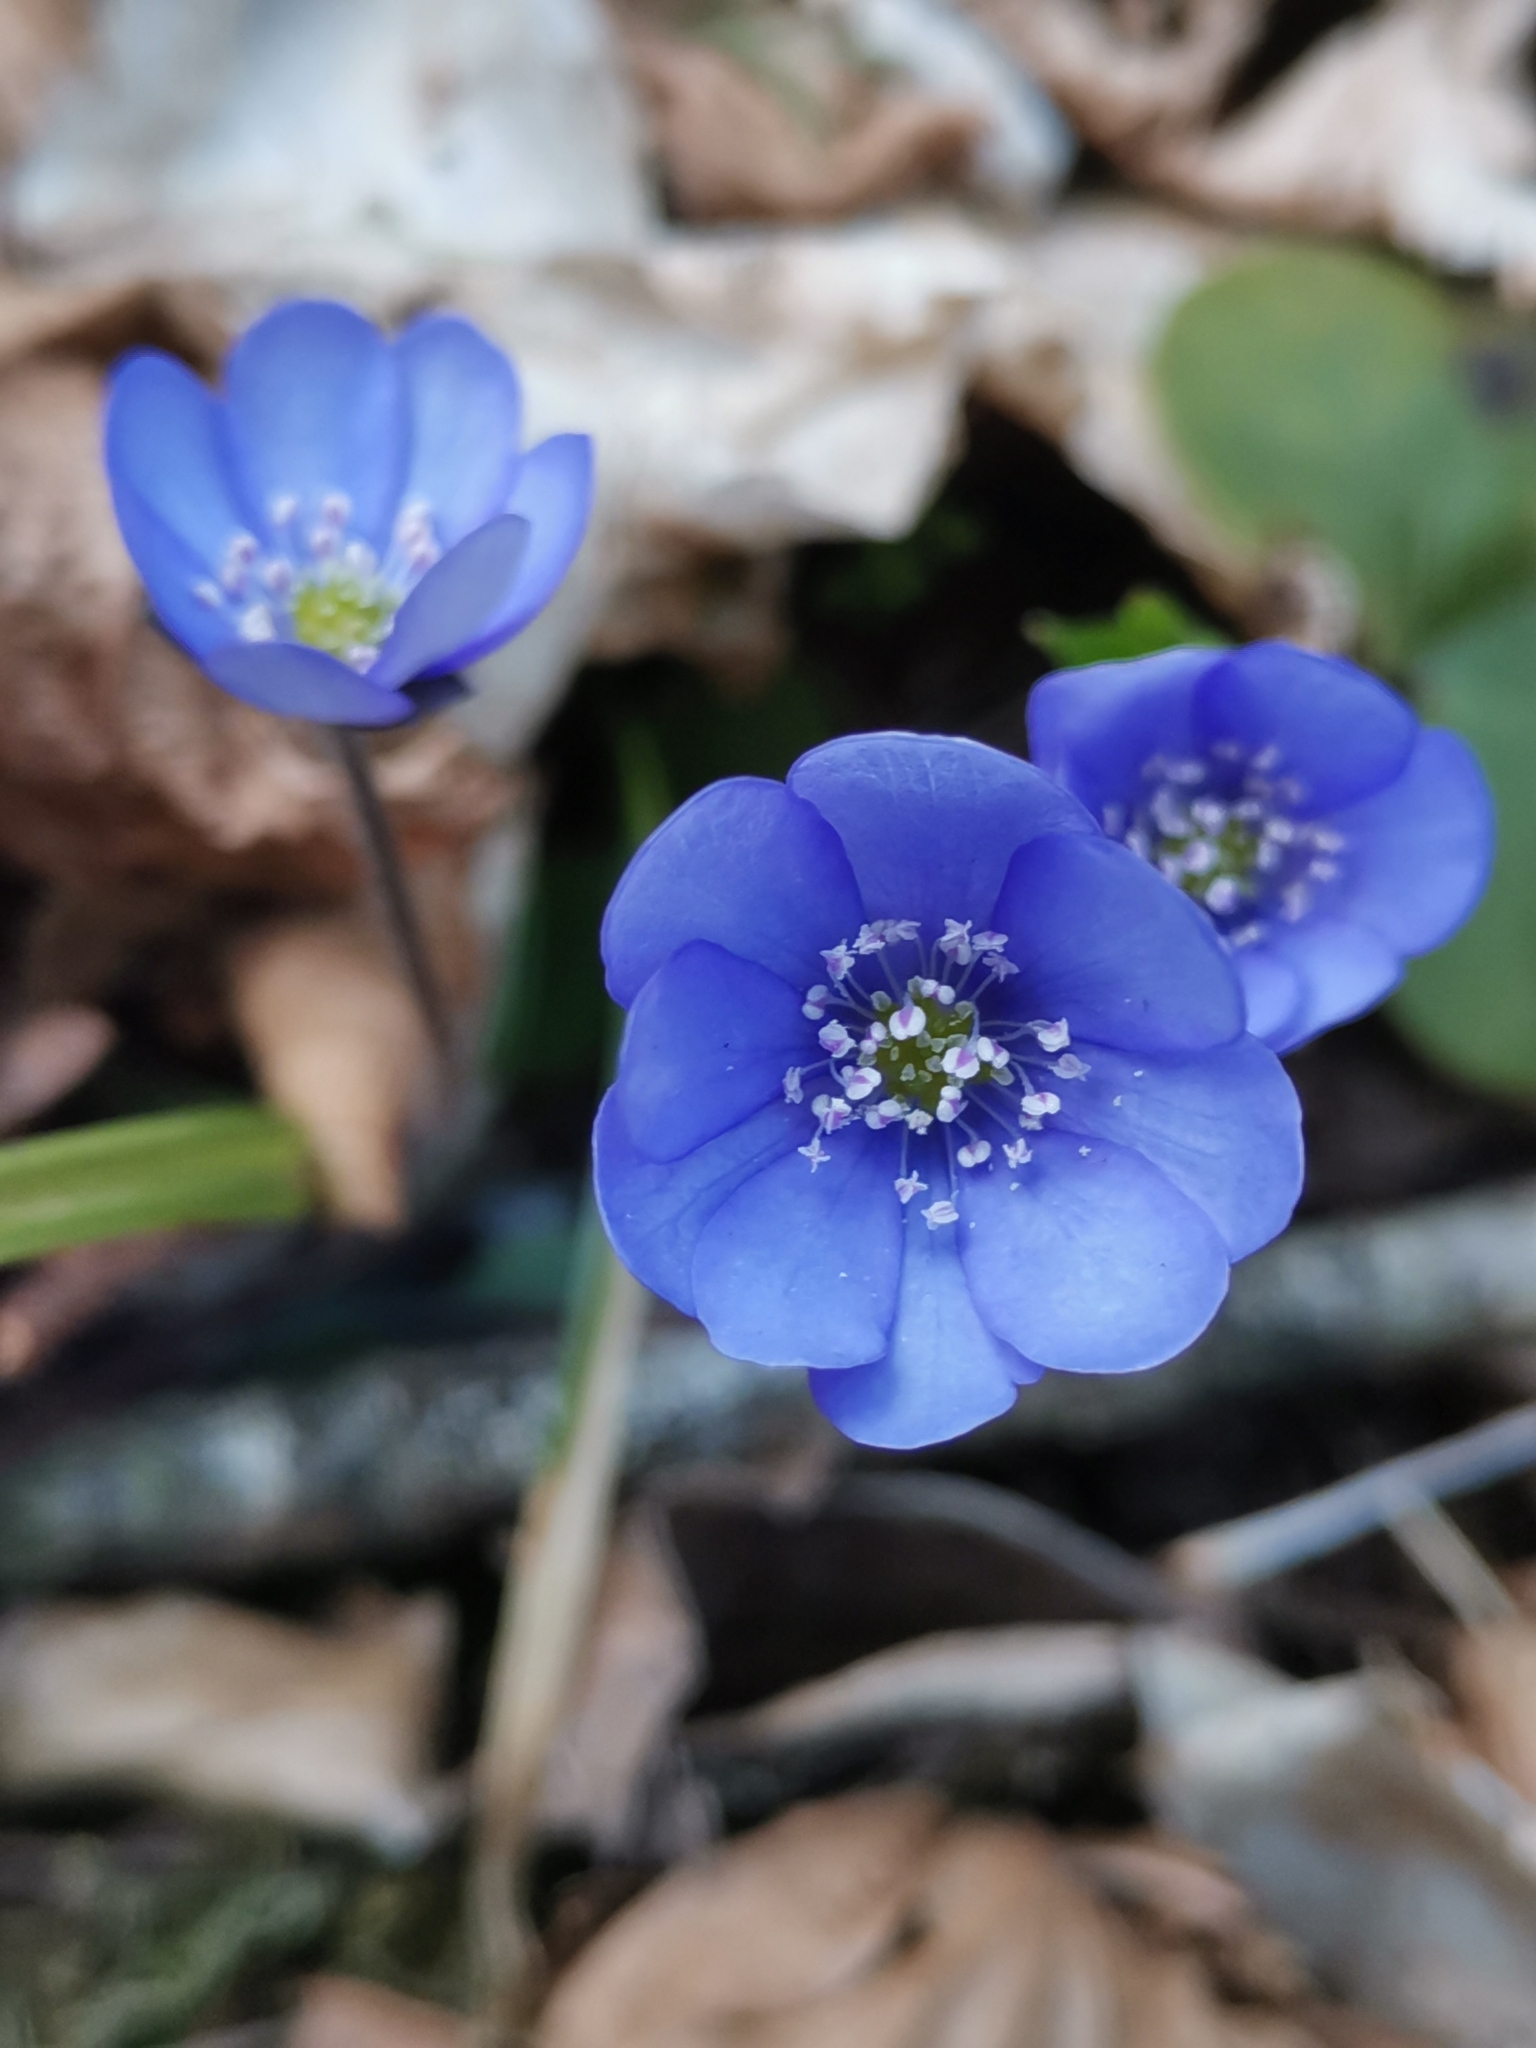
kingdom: Plantae
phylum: Tracheophyta
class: Magnoliopsida
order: Ranunculales
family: Ranunculaceae
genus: Hepatica
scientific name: Hepatica nobilis
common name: Liverleaf
